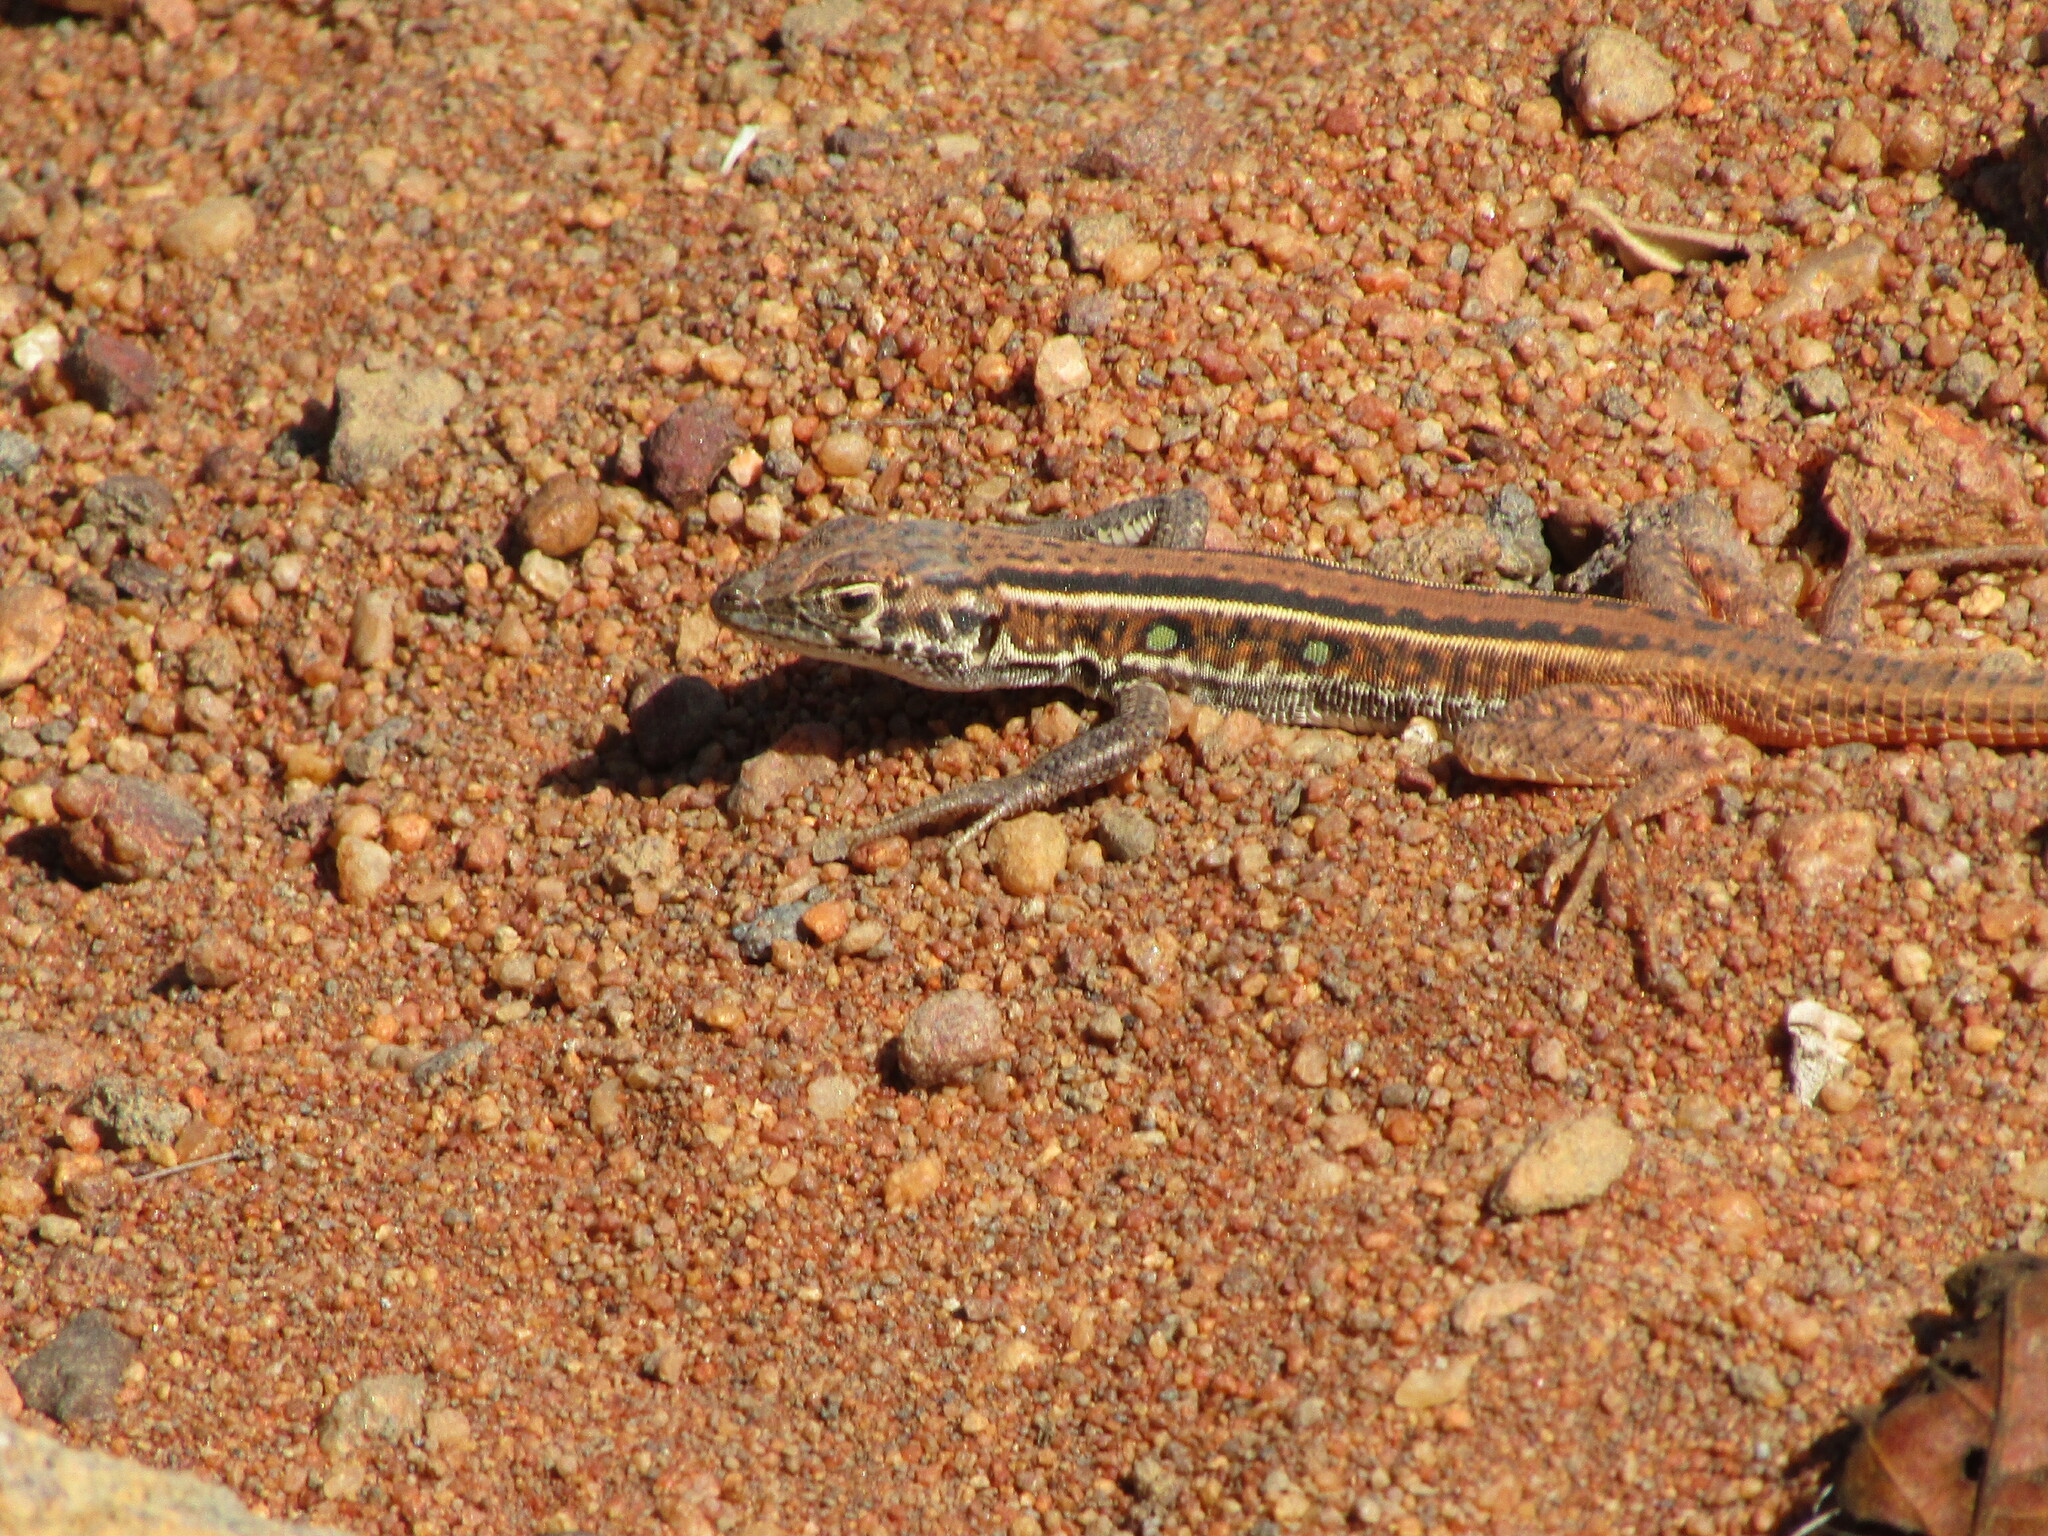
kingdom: Animalia
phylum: Chordata
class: Squamata
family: Lacertidae
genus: Pedioplanis
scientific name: Pedioplanis lineoocellata
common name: Spotted sand lizard
